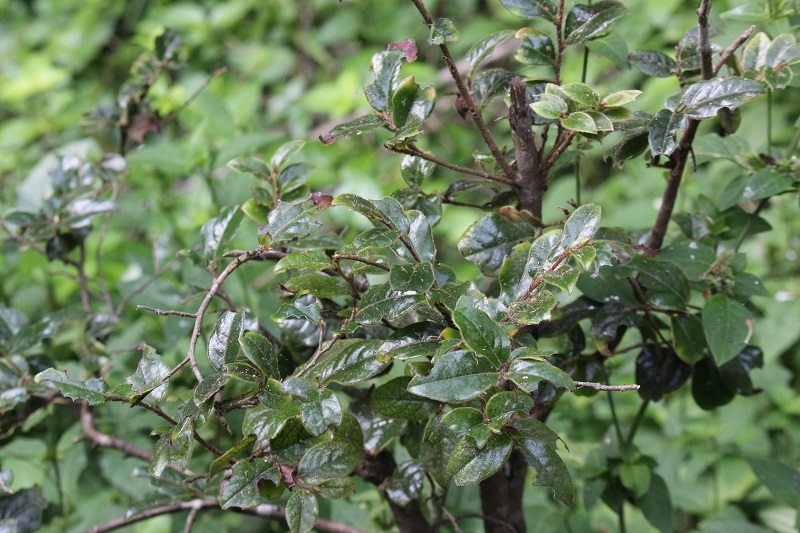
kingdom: Plantae
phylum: Tracheophyta
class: Magnoliopsida
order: Ericales
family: Ebenaceae
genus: Diospyros
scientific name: Diospyros whyteana
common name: Bladder-nut
